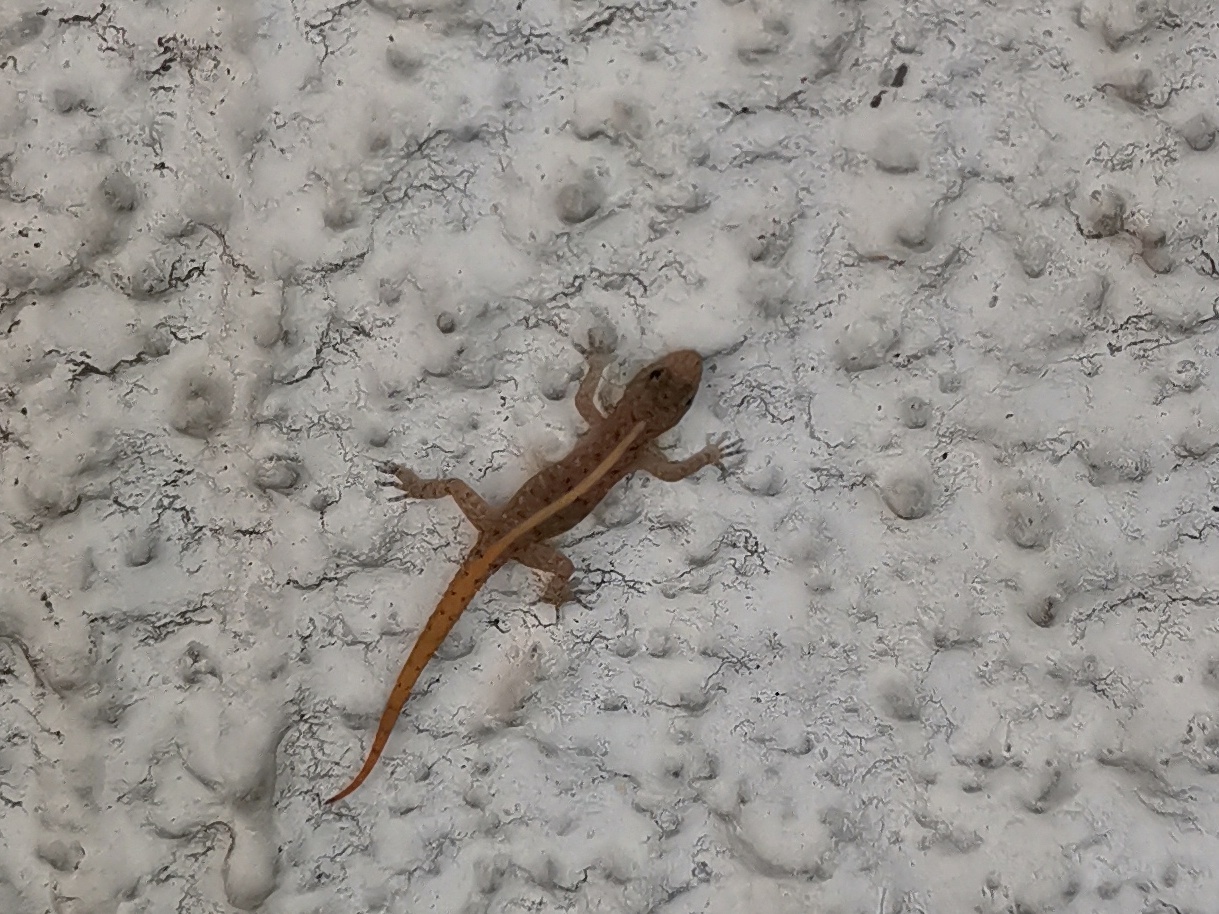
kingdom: Animalia
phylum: Chordata
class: Squamata
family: Gekkonidae
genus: Cnemaspis
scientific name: Cnemaspis mysoriensis
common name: Mysore day gecko
